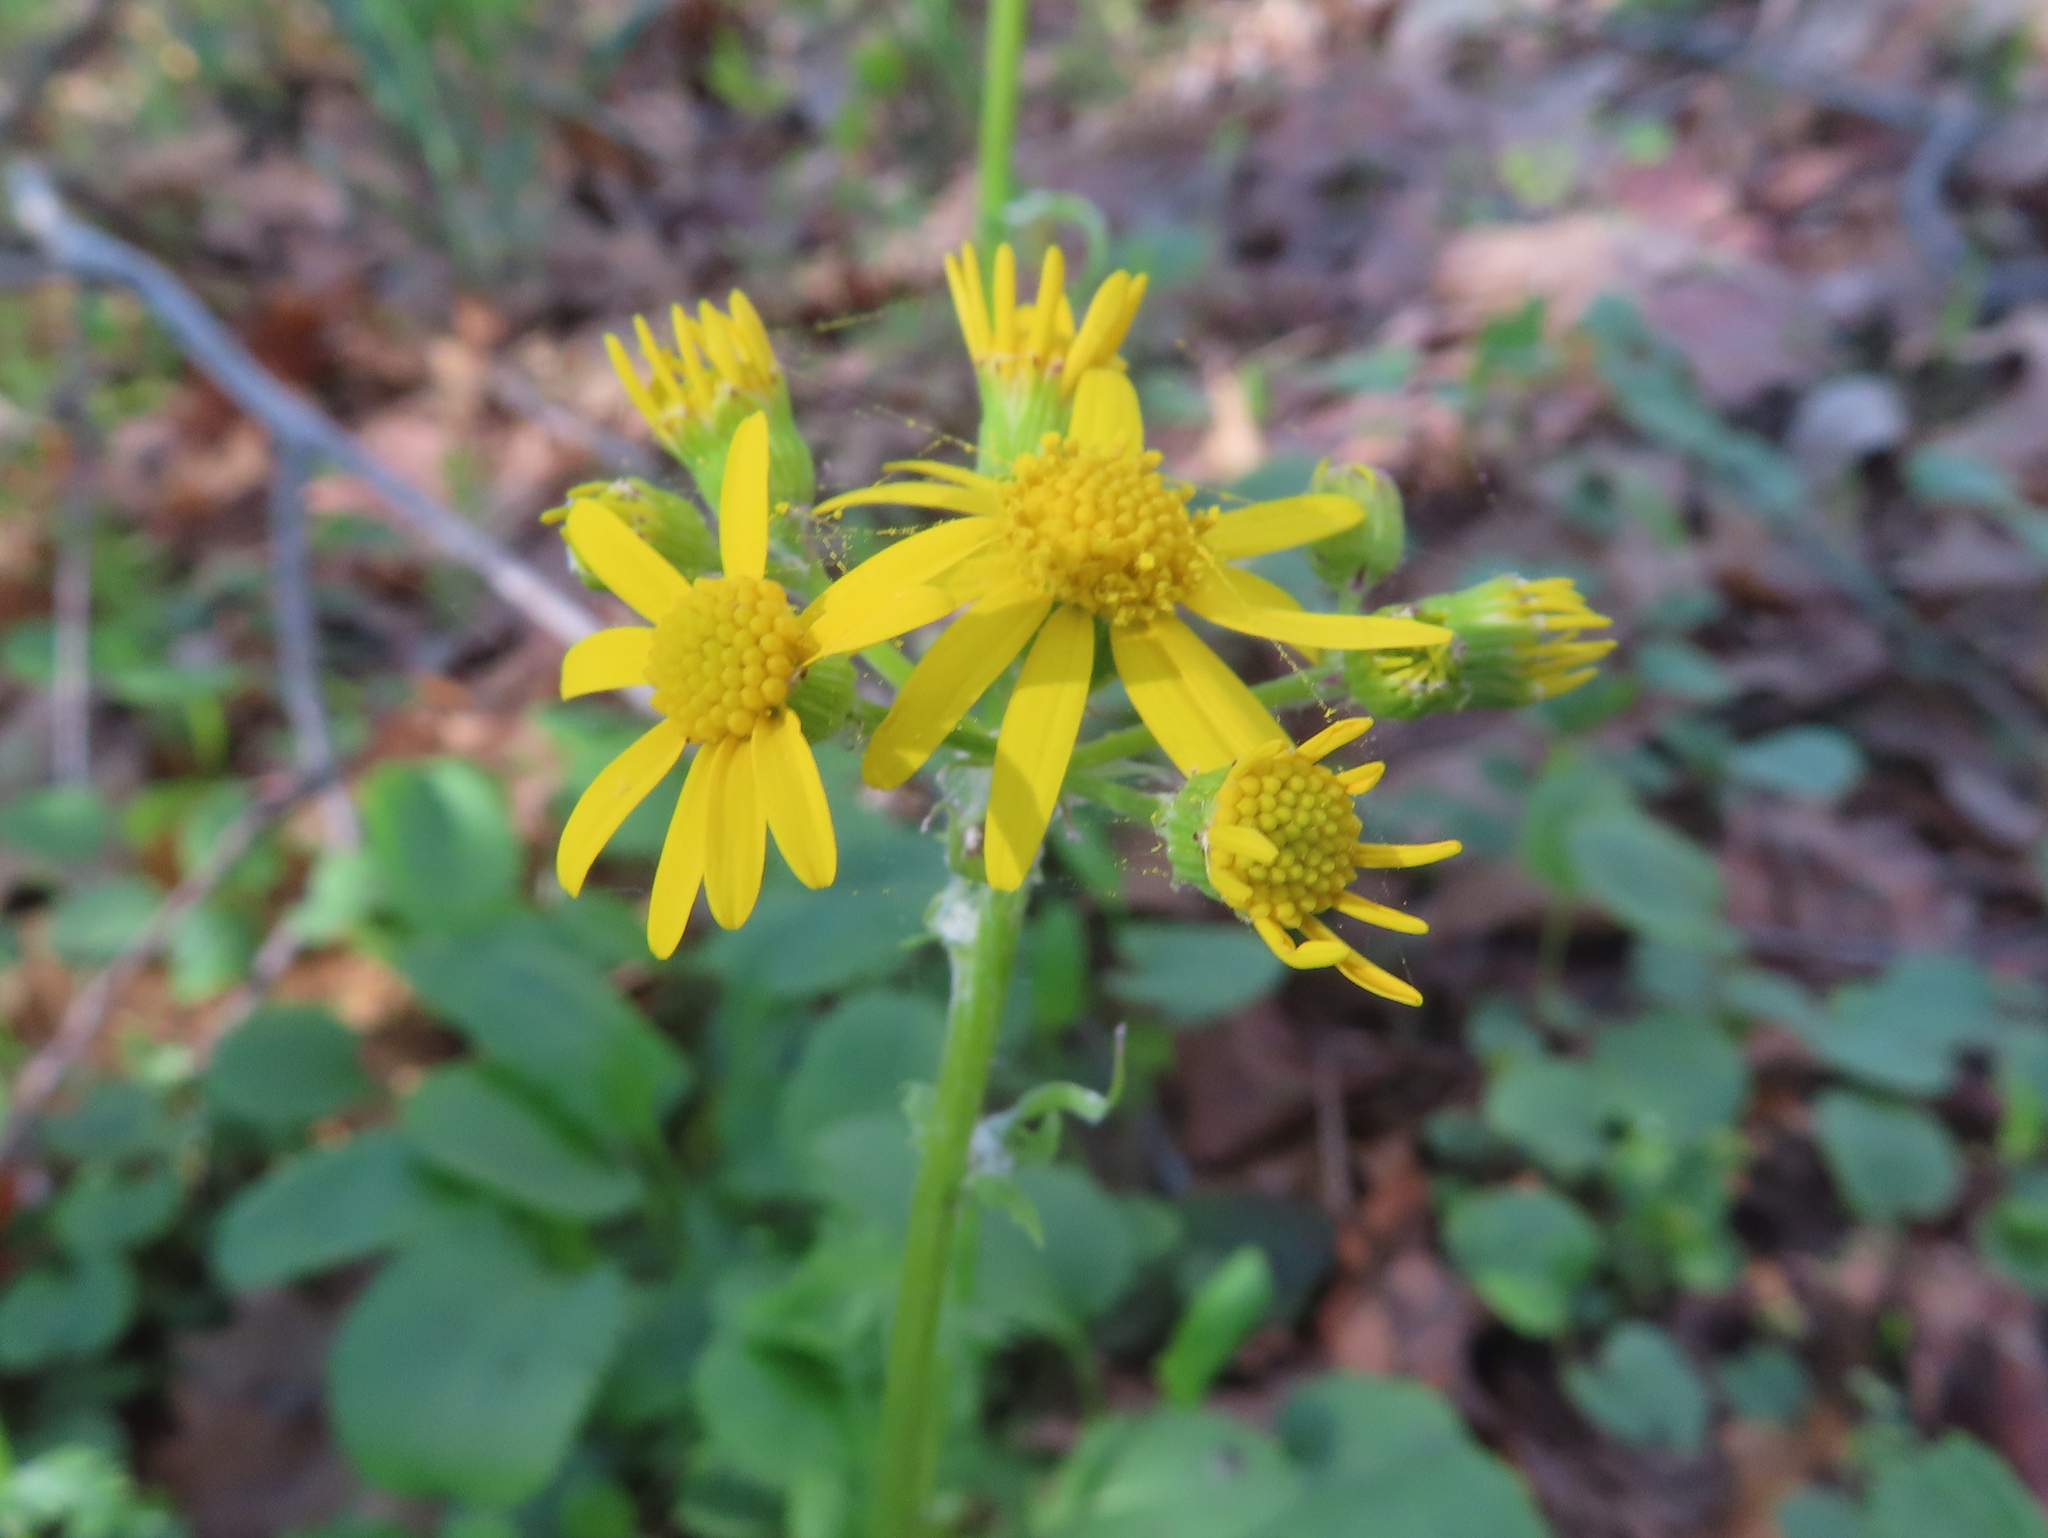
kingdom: Plantae
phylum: Tracheophyta
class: Magnoliopsida
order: Asterales
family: Asteraceae
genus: Packera
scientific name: Packera obovata
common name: Round-leaf ragwort
